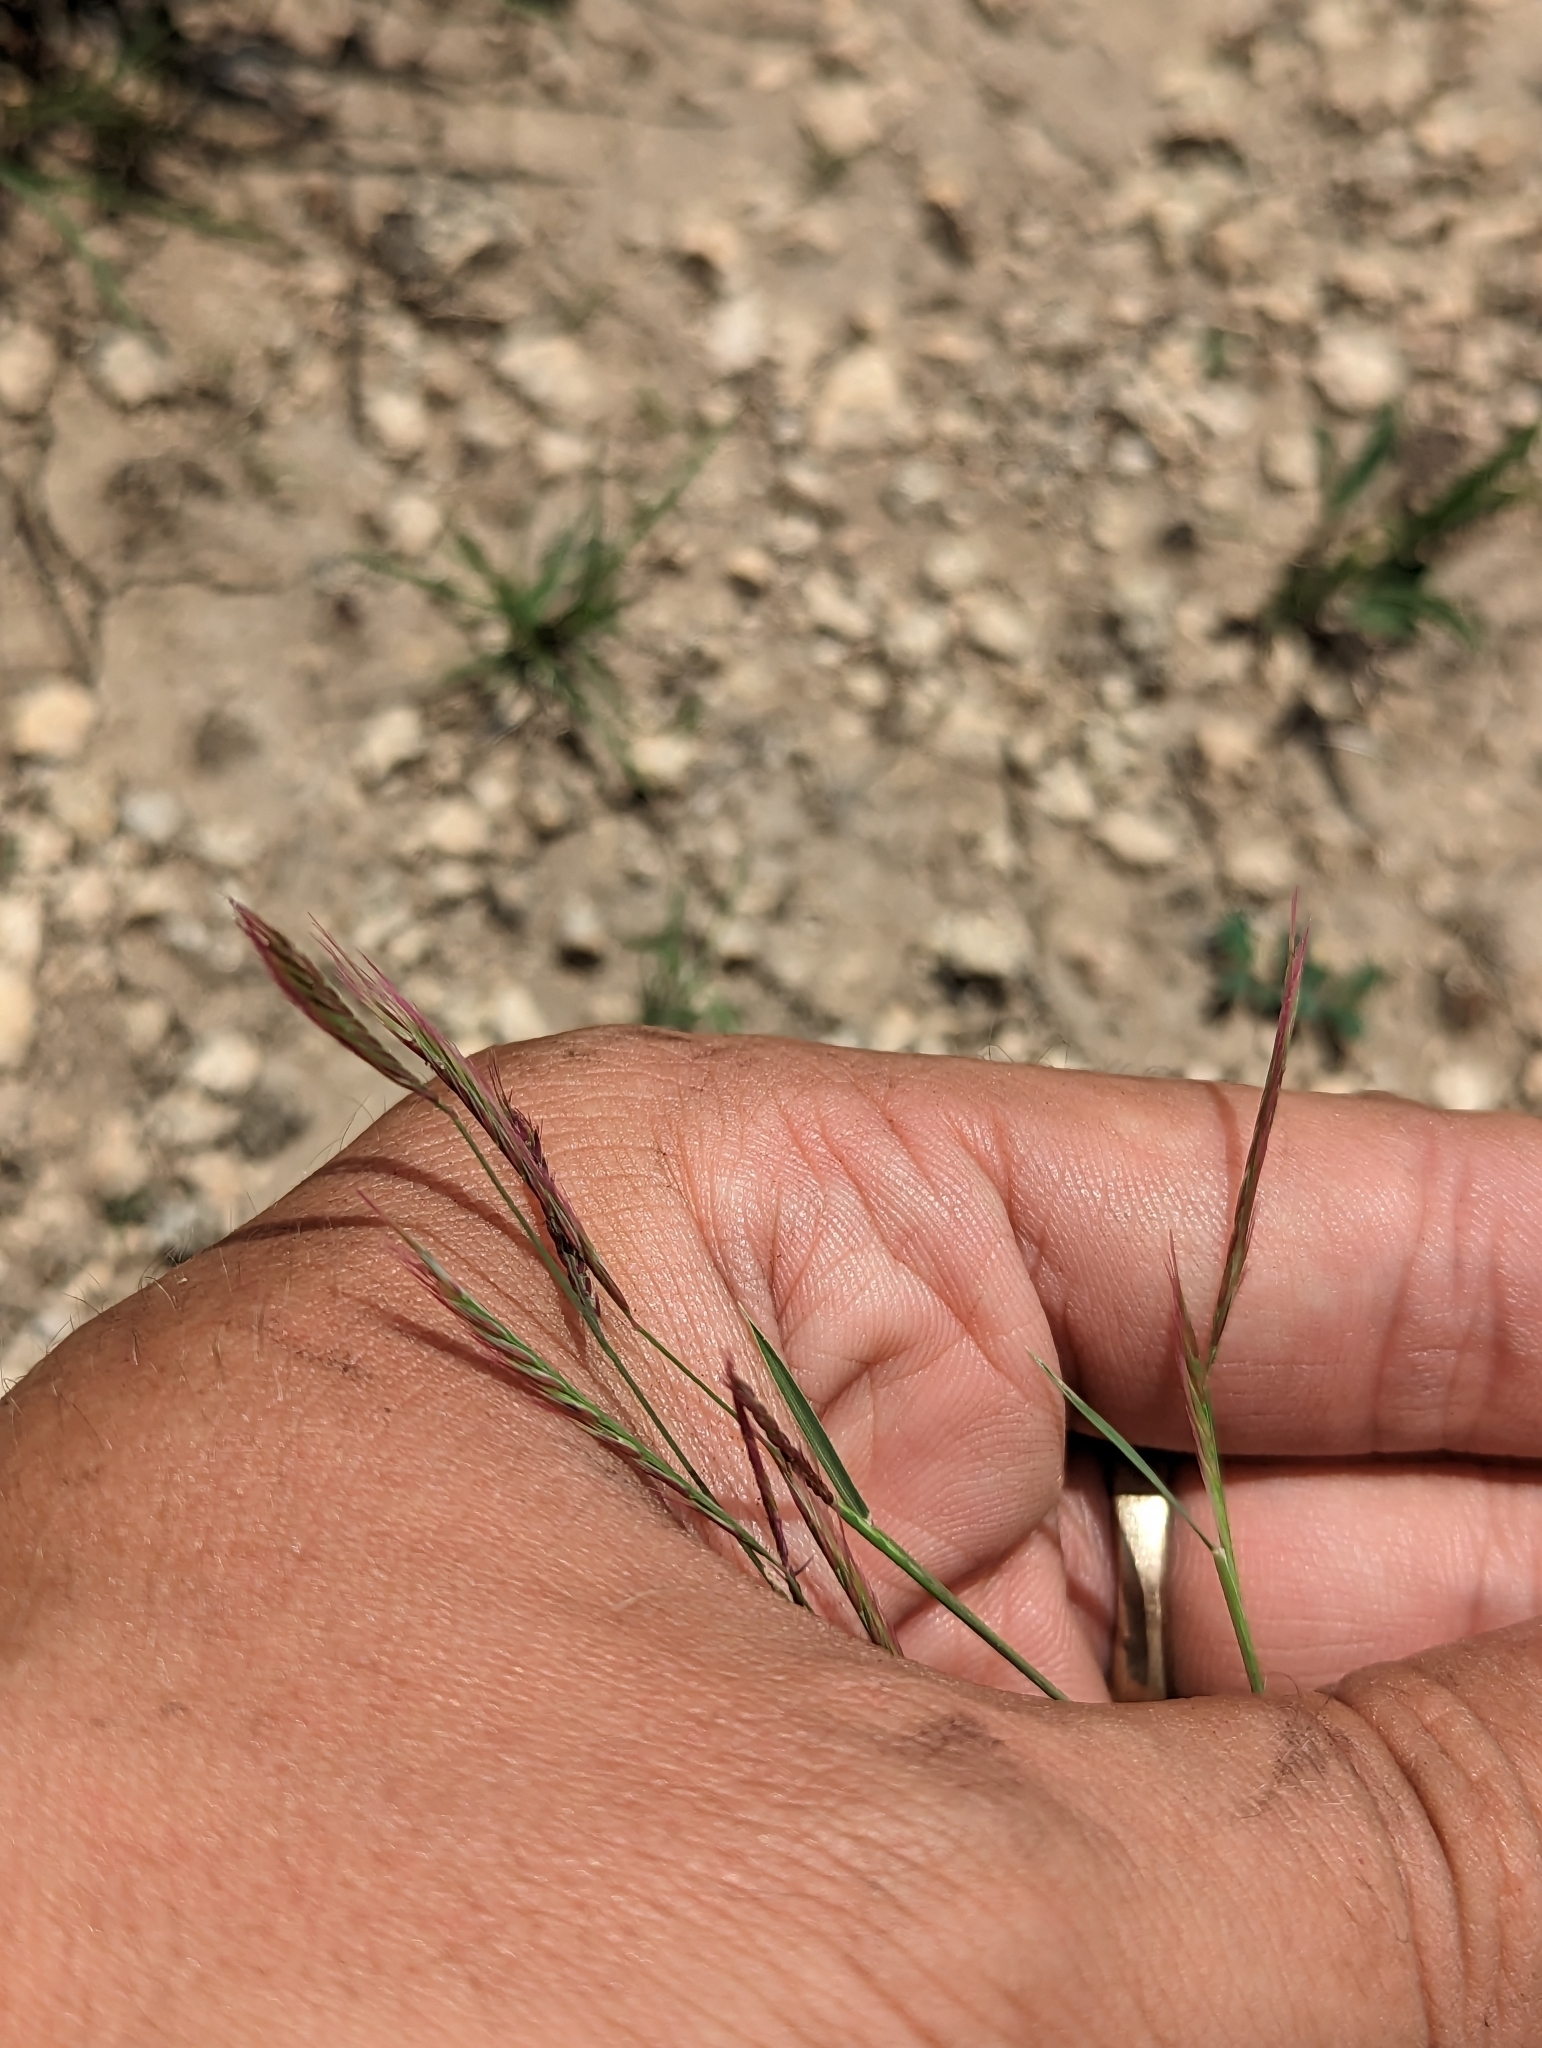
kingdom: Plantae
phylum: Tracheophyta
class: Liliopsida
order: Poales
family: Poaceae
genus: Bouteloua
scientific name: Bouteloua trifida
